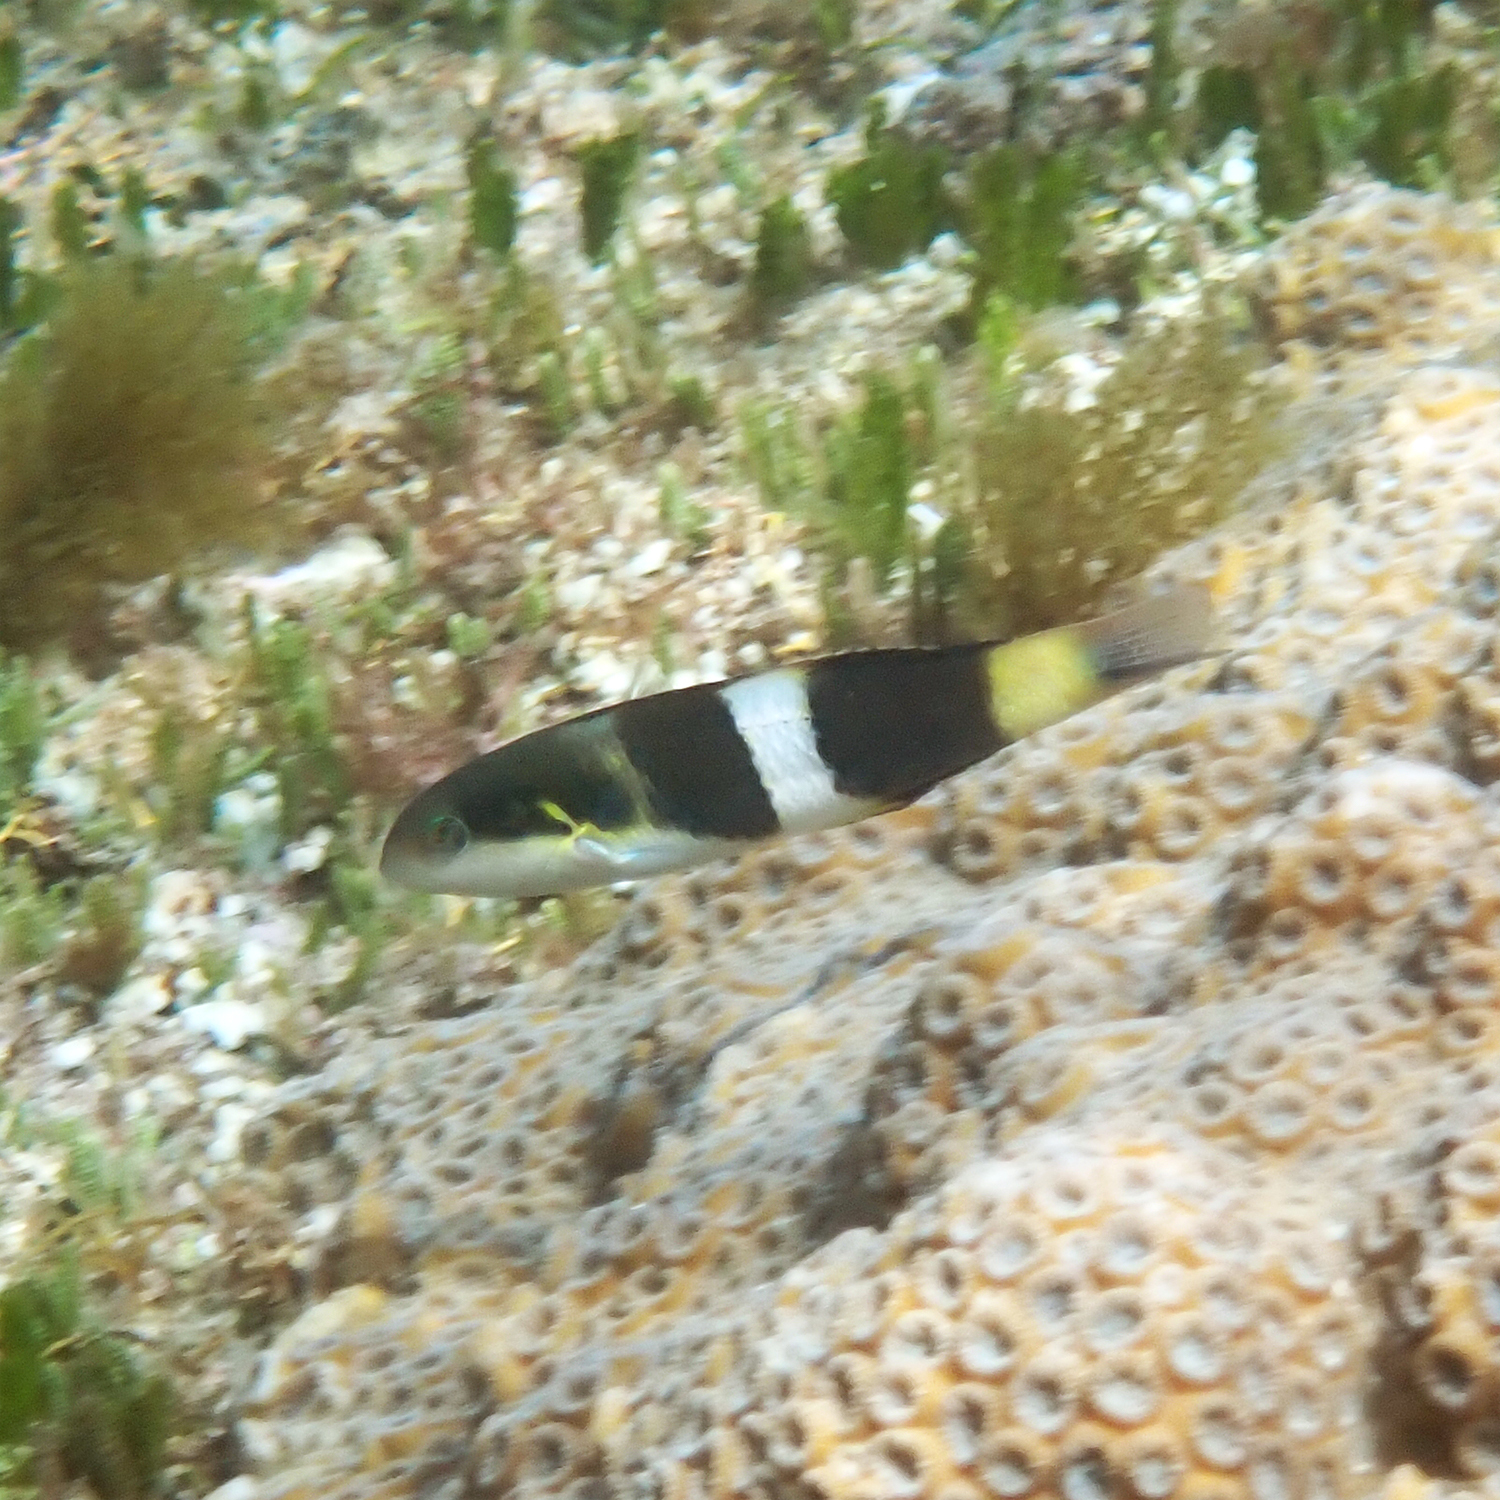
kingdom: Animalia
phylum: Chordata
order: Perciformes
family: Labridae
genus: Thalassoma
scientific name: Thalassoma nigrofasciatum
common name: Black-barred wrasse
